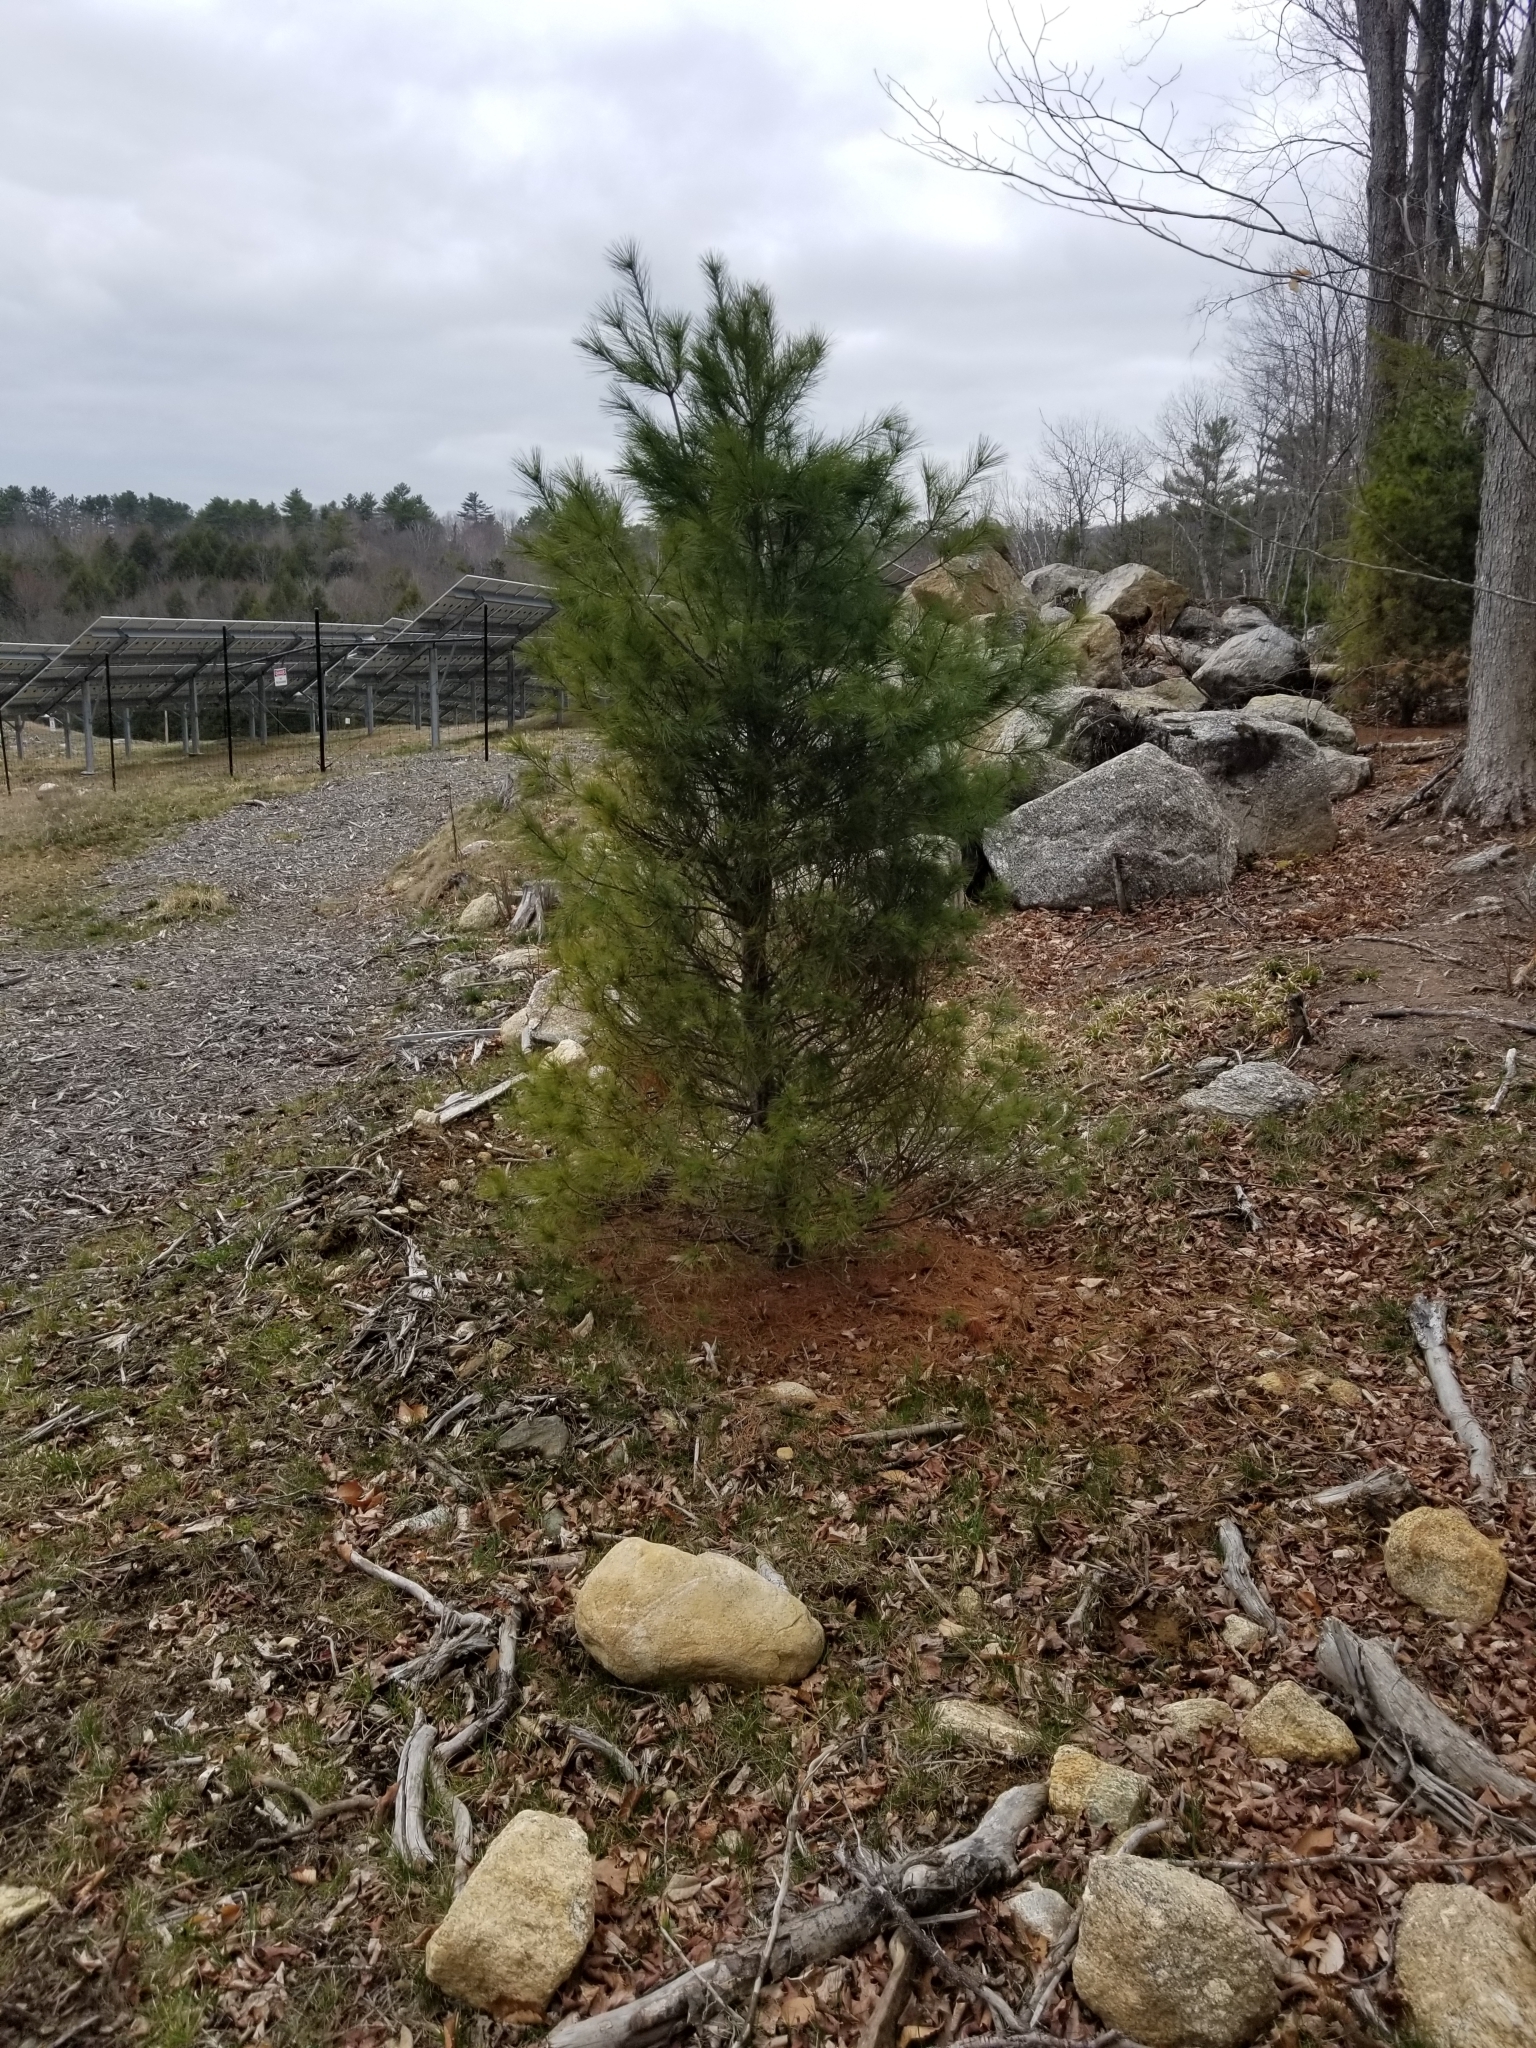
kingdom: Plantae
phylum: Tracheophyta
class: Pinopsida
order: Pinales
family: Pinaceae
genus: Pinus
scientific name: Pinus strobus
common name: Weymouth pine
